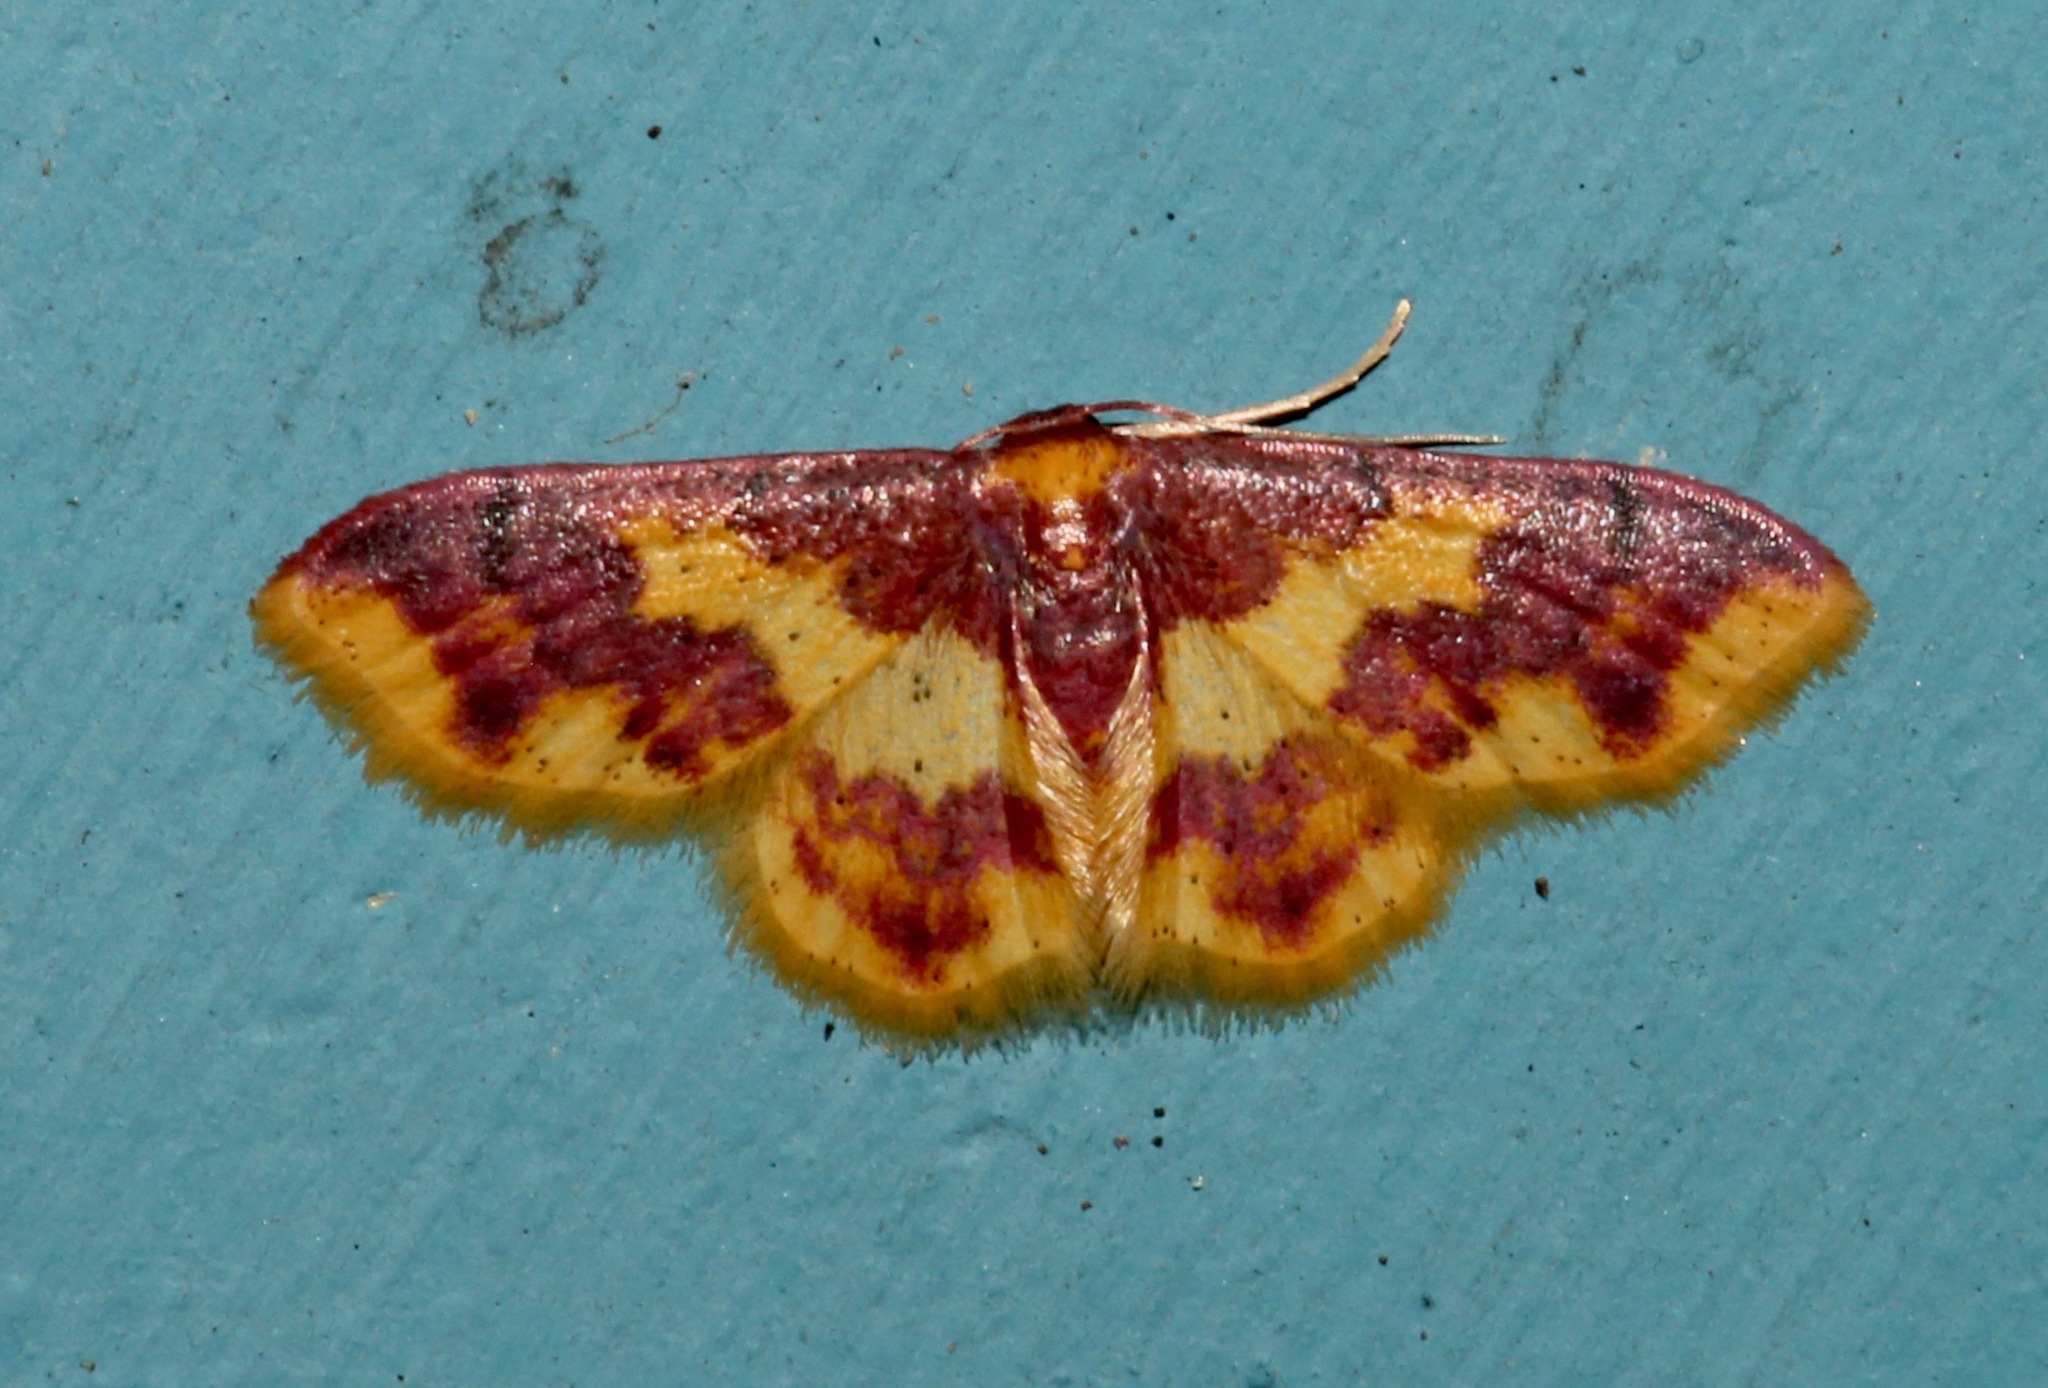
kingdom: Animalia
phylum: Arthropoda
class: Insecta
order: Lepidoptera
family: Geometridae
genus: Lophosis
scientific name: Lophosis labeculata
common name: Stained lophosis moth
